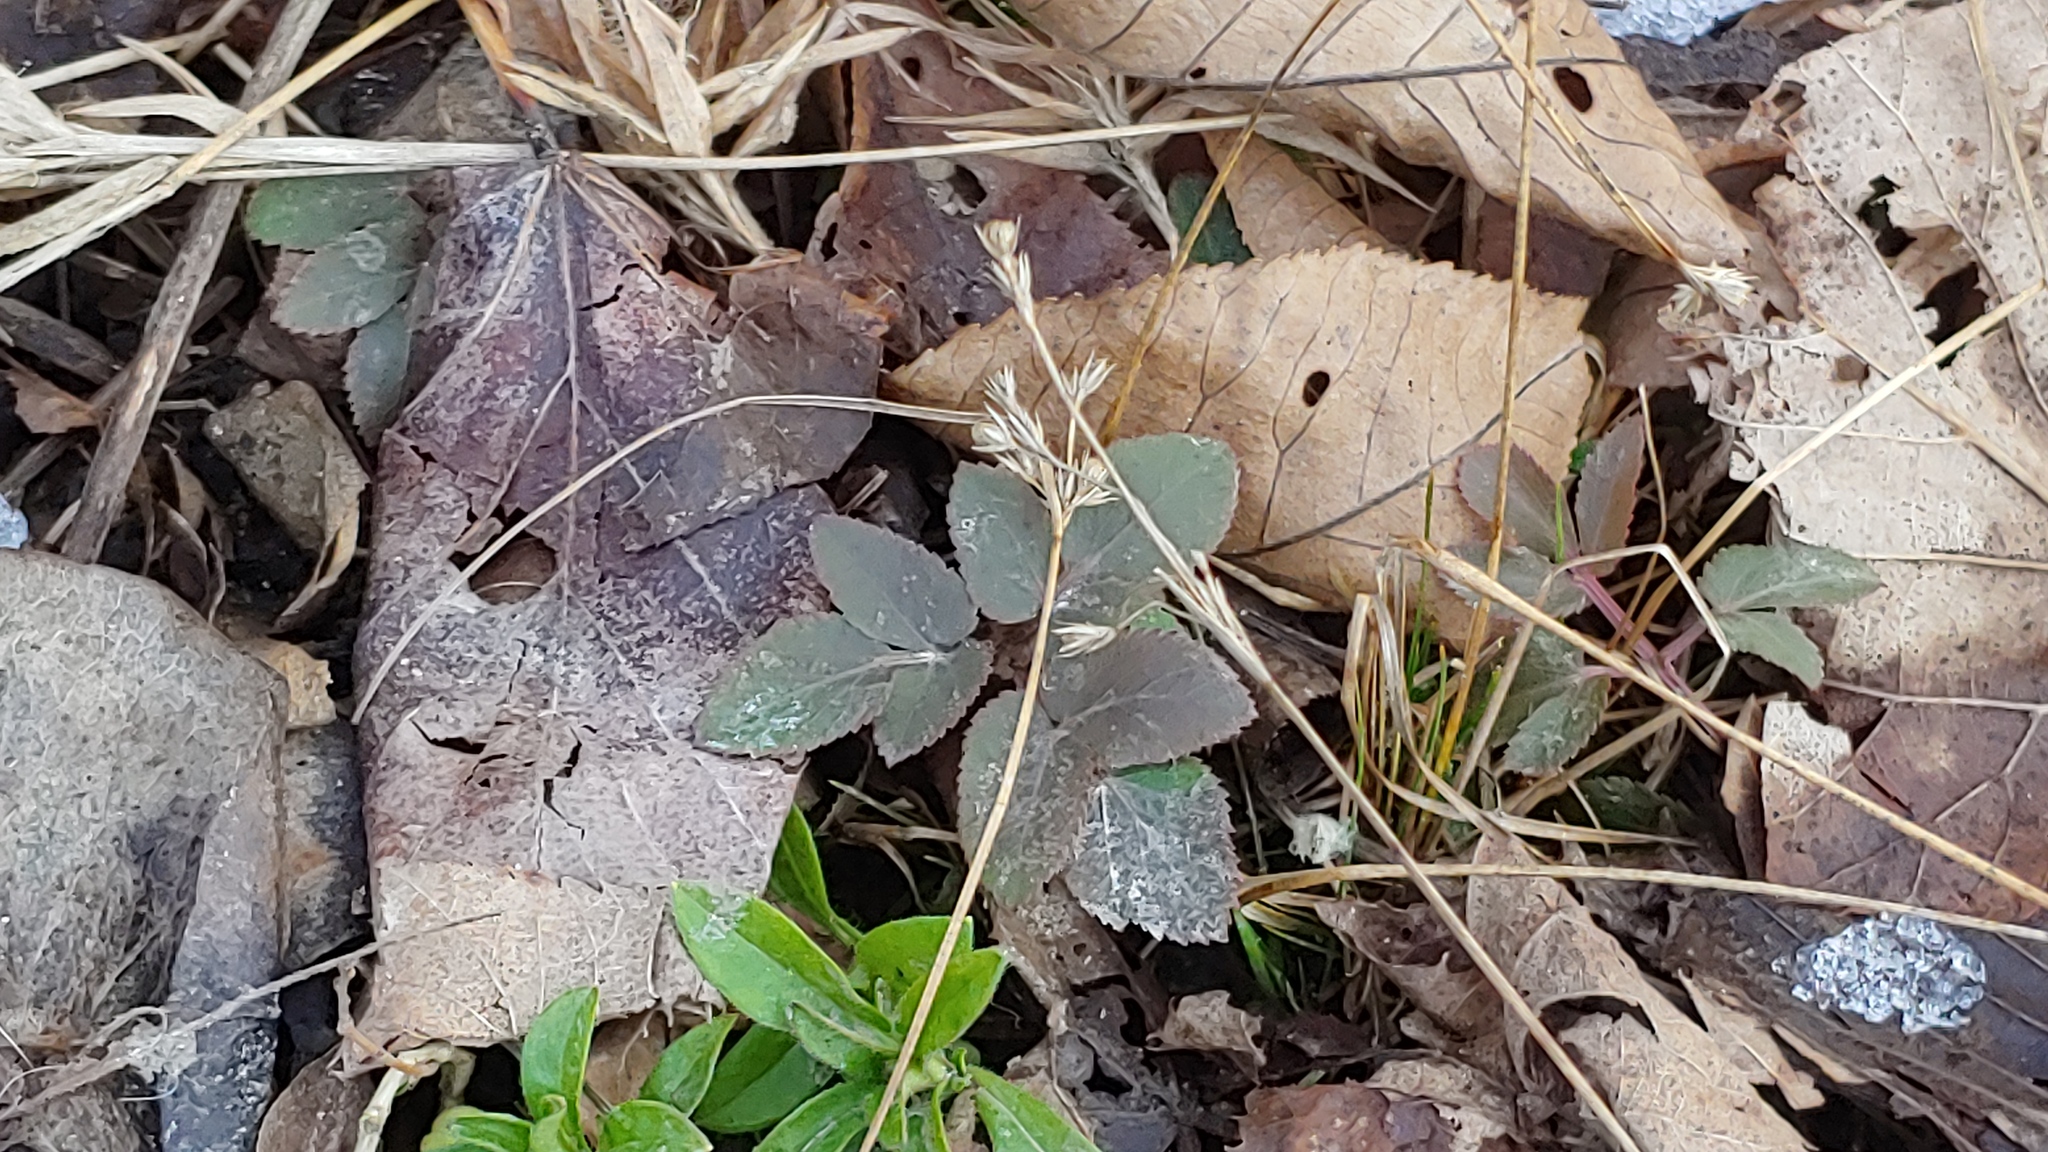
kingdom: Plantae
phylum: Tracheophyta
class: Magnoliopsida
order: Apiales
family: Apiaceae
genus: Zizia
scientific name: Zizia aurea
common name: Golden alexanders
